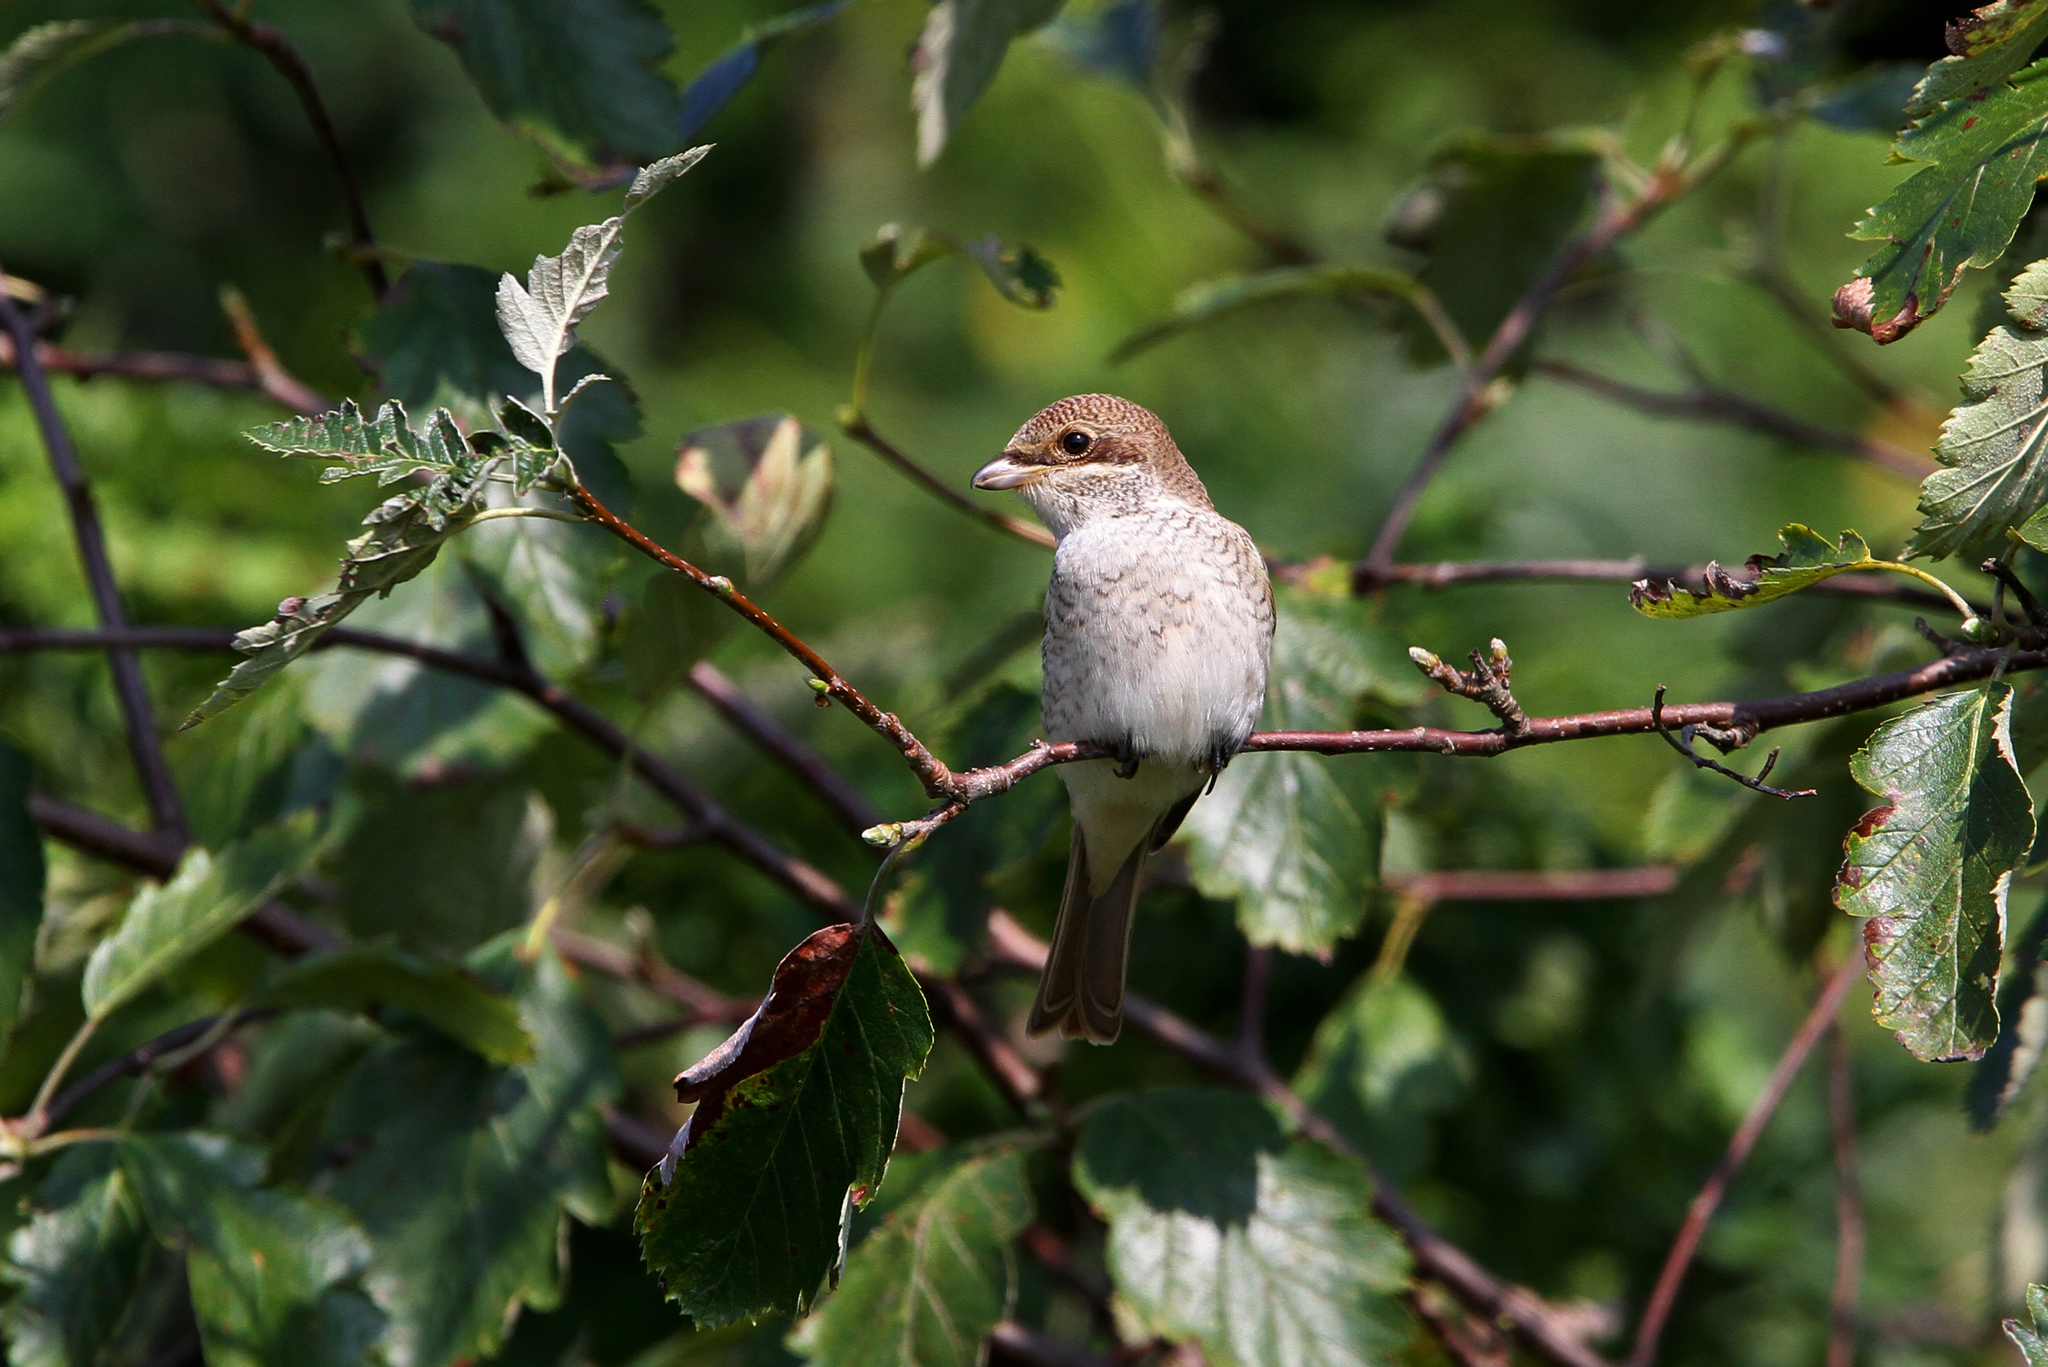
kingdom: Animalia
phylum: Chordata
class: Aves
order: Passeriformes
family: Laniidae
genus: Lanius
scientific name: Lanius collurio
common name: Red-backed shrike
